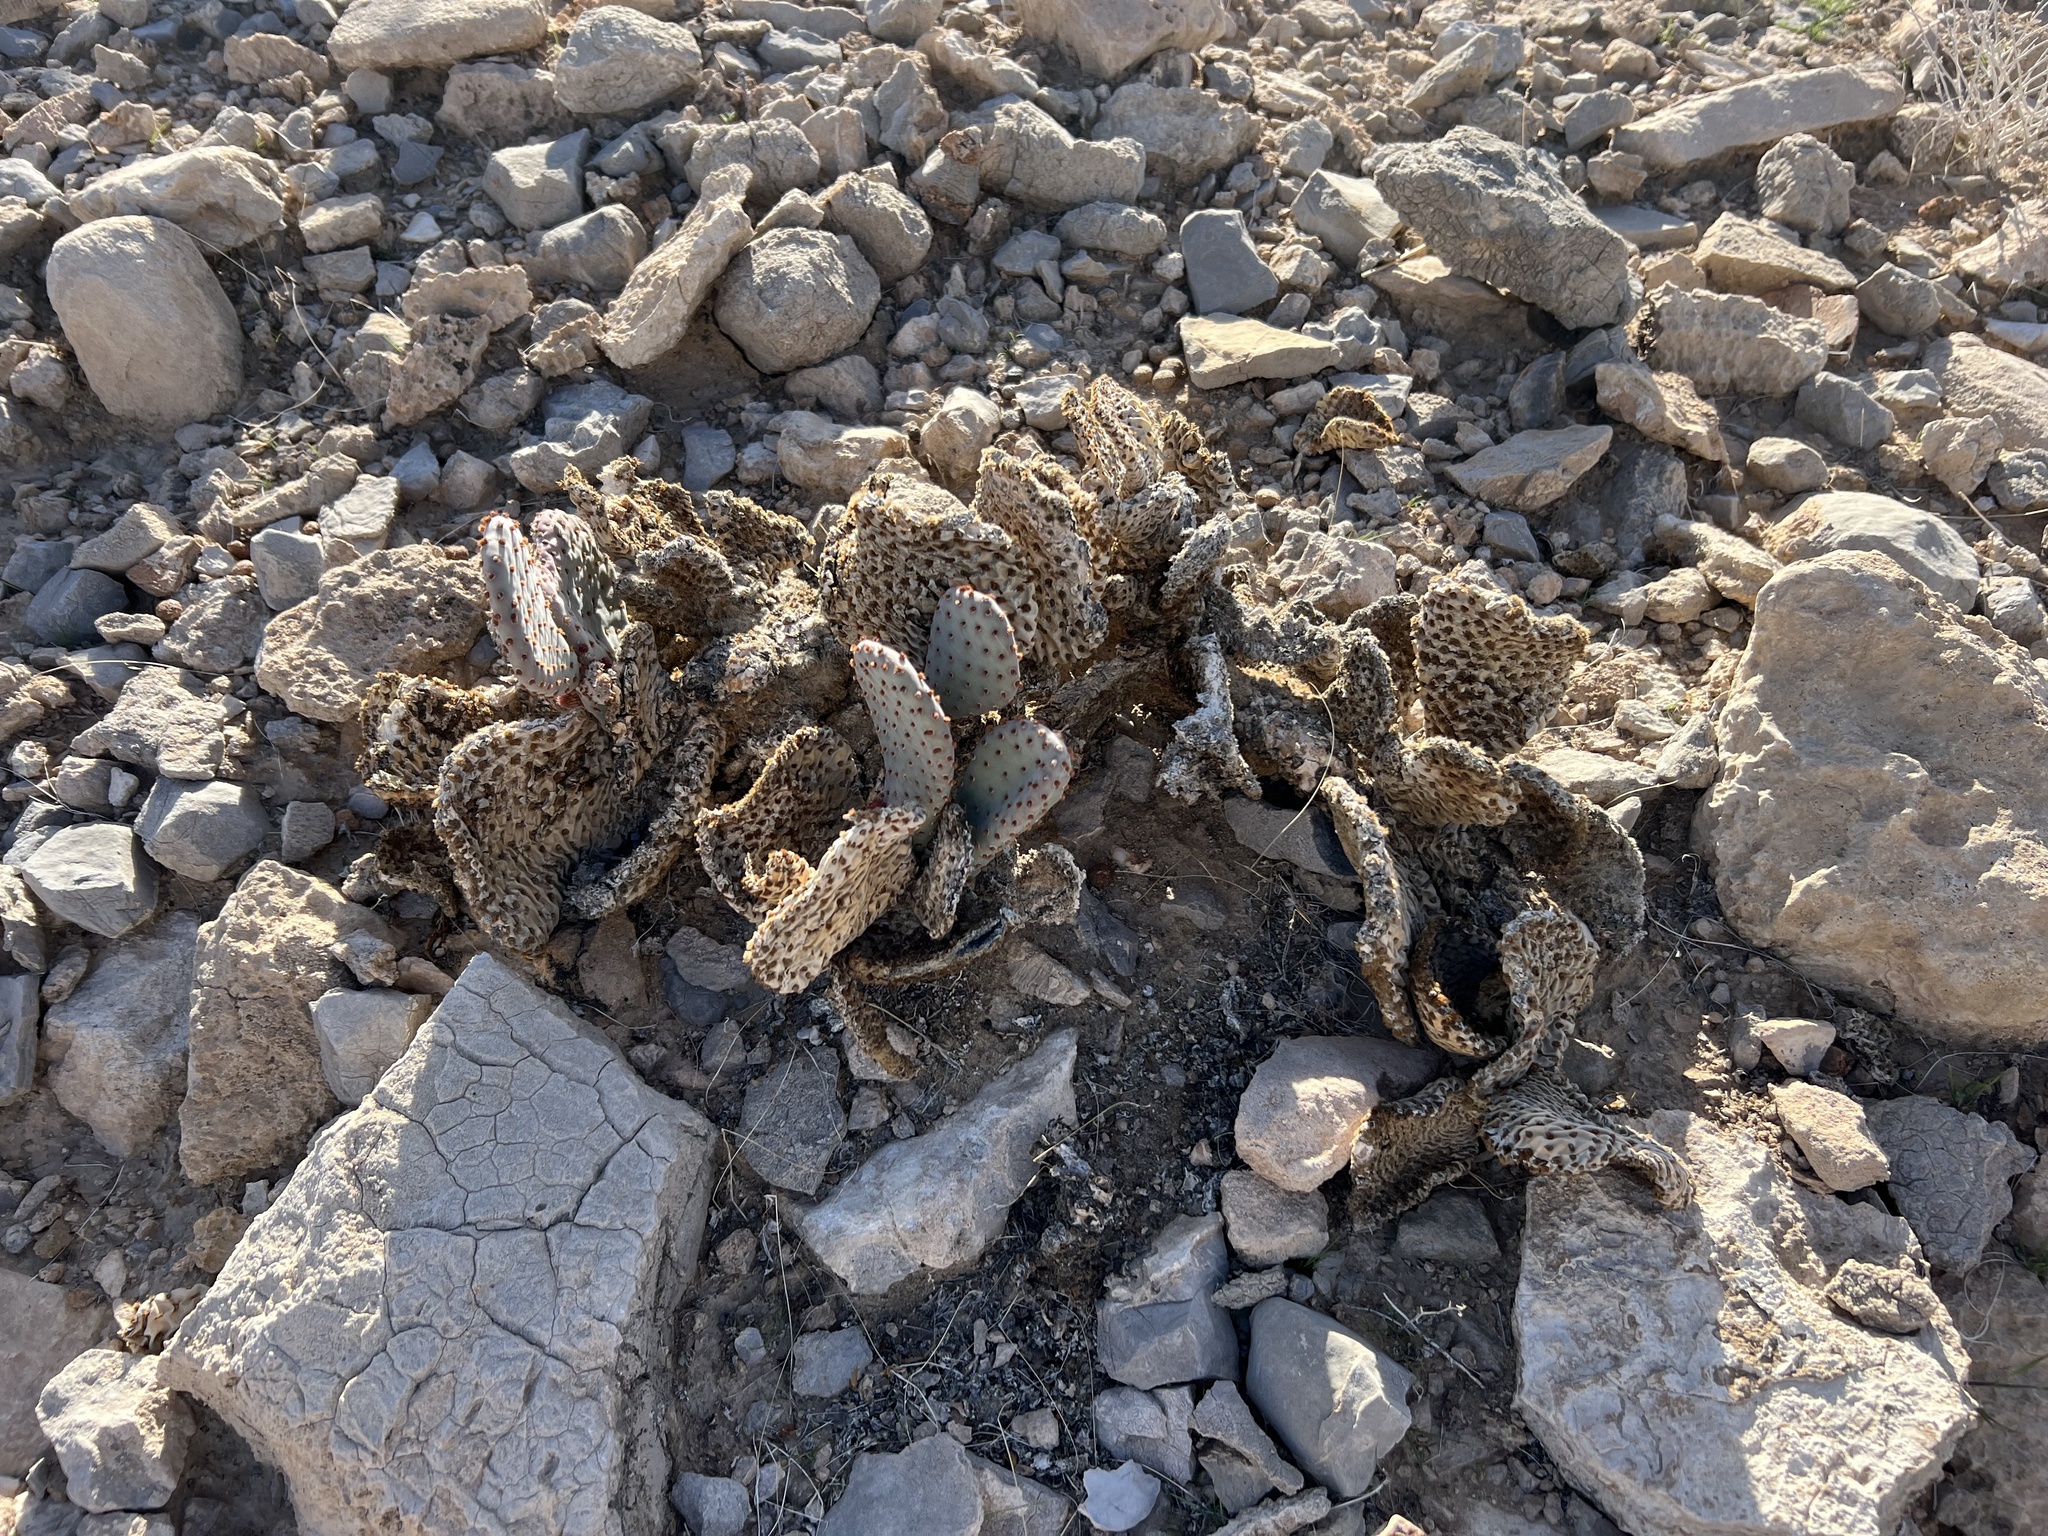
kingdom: Plantae
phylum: Tracheophyta
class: Magnoliopsida
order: Caryophyllales
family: Cactaceae
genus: Opuntia
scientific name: Opuntia basilaris
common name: Beavertail prickly-pear
